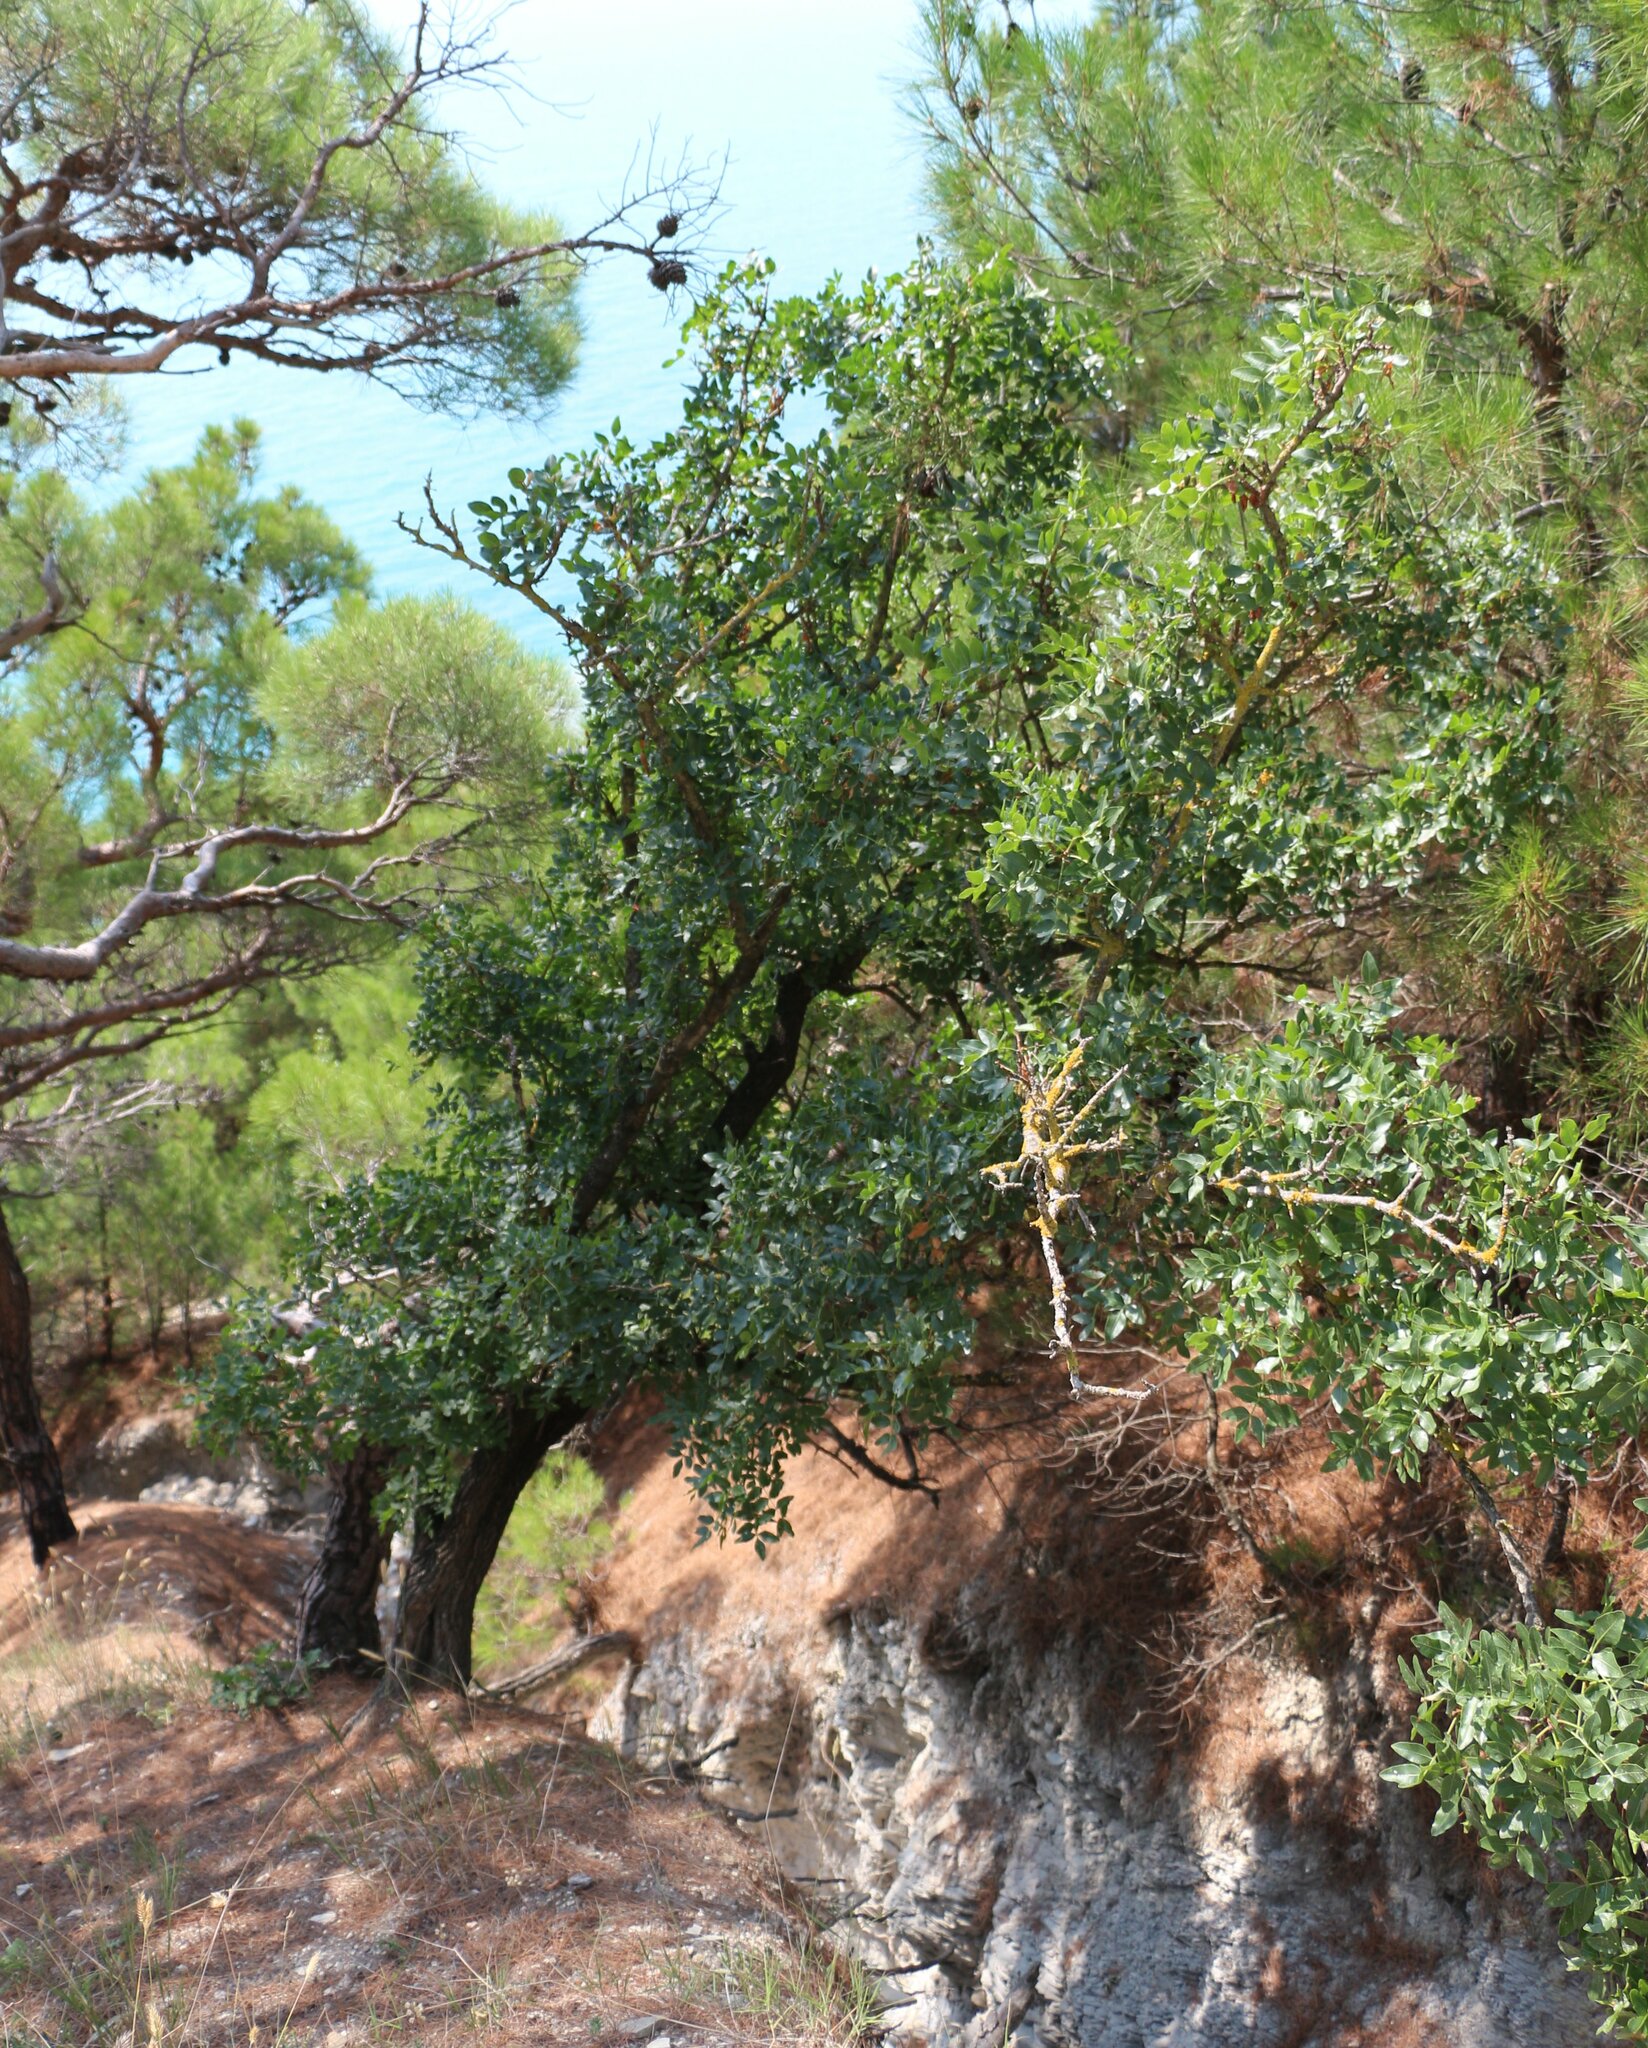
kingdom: Plantae
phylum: Tracheophyta
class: Magnoliopsida
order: Sapindales
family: Anacardiaceae
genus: Pistacia
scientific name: Pistacia atlantica
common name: Mt. atlas mastic tree
